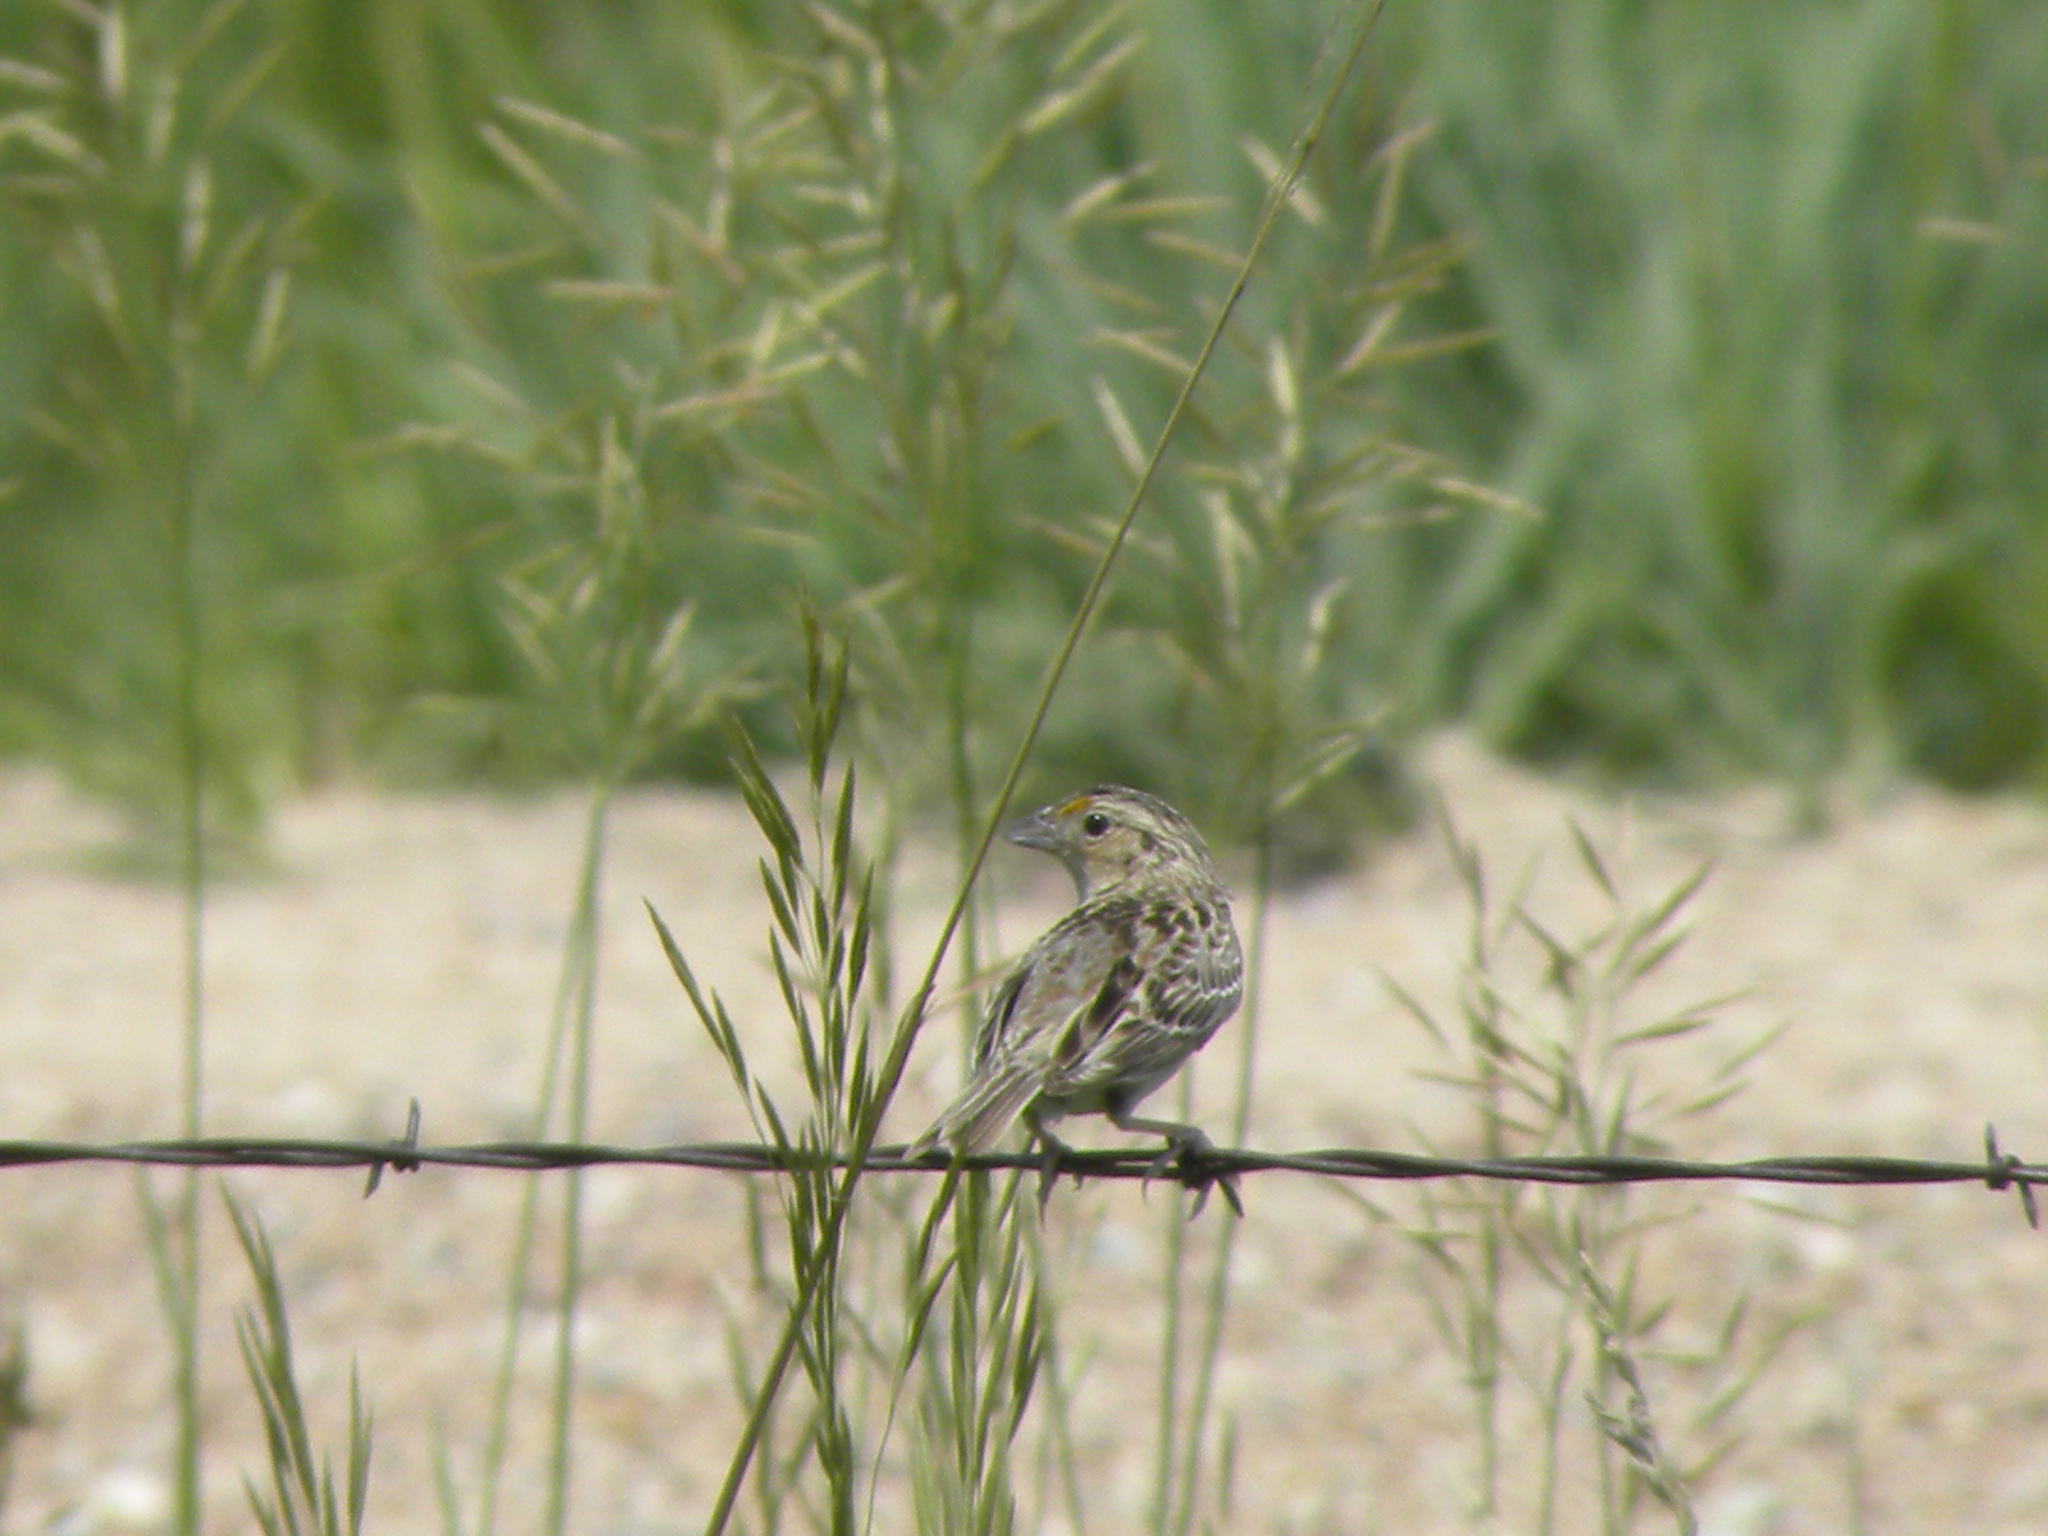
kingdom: Animalia
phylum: Chordata
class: Aves
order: Passeriformes
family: Passerellidae
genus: Ammodramus
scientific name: Ammodramus savannarum
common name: Grasshopper sparrow
